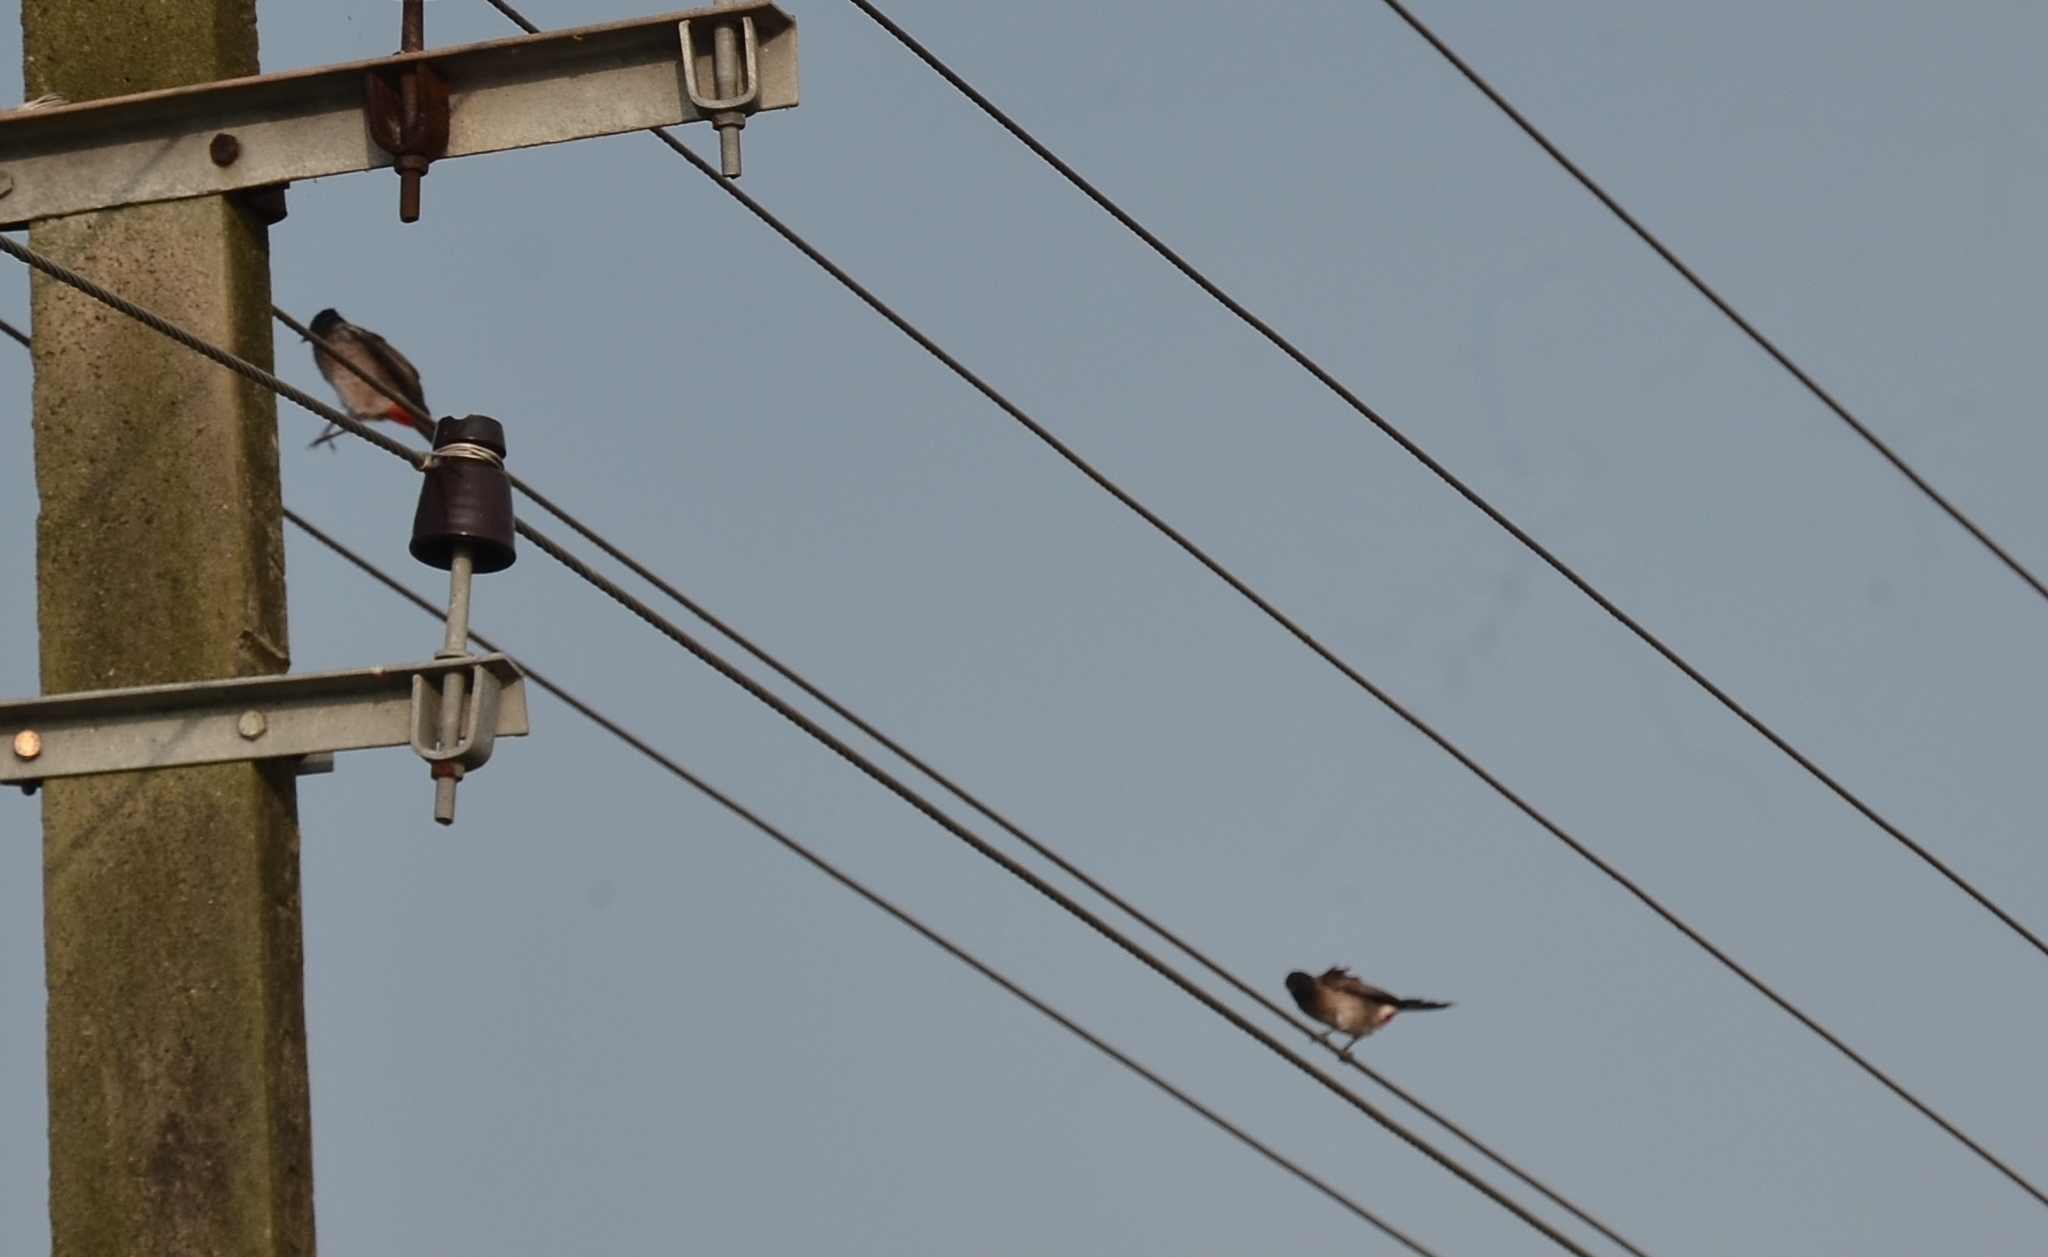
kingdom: Animalia
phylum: Chordata
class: Aves
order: Passeriformes
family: Pycnonotidae
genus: Pycnonotus
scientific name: Pycnonotus cafer
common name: Red-vented bulbul
